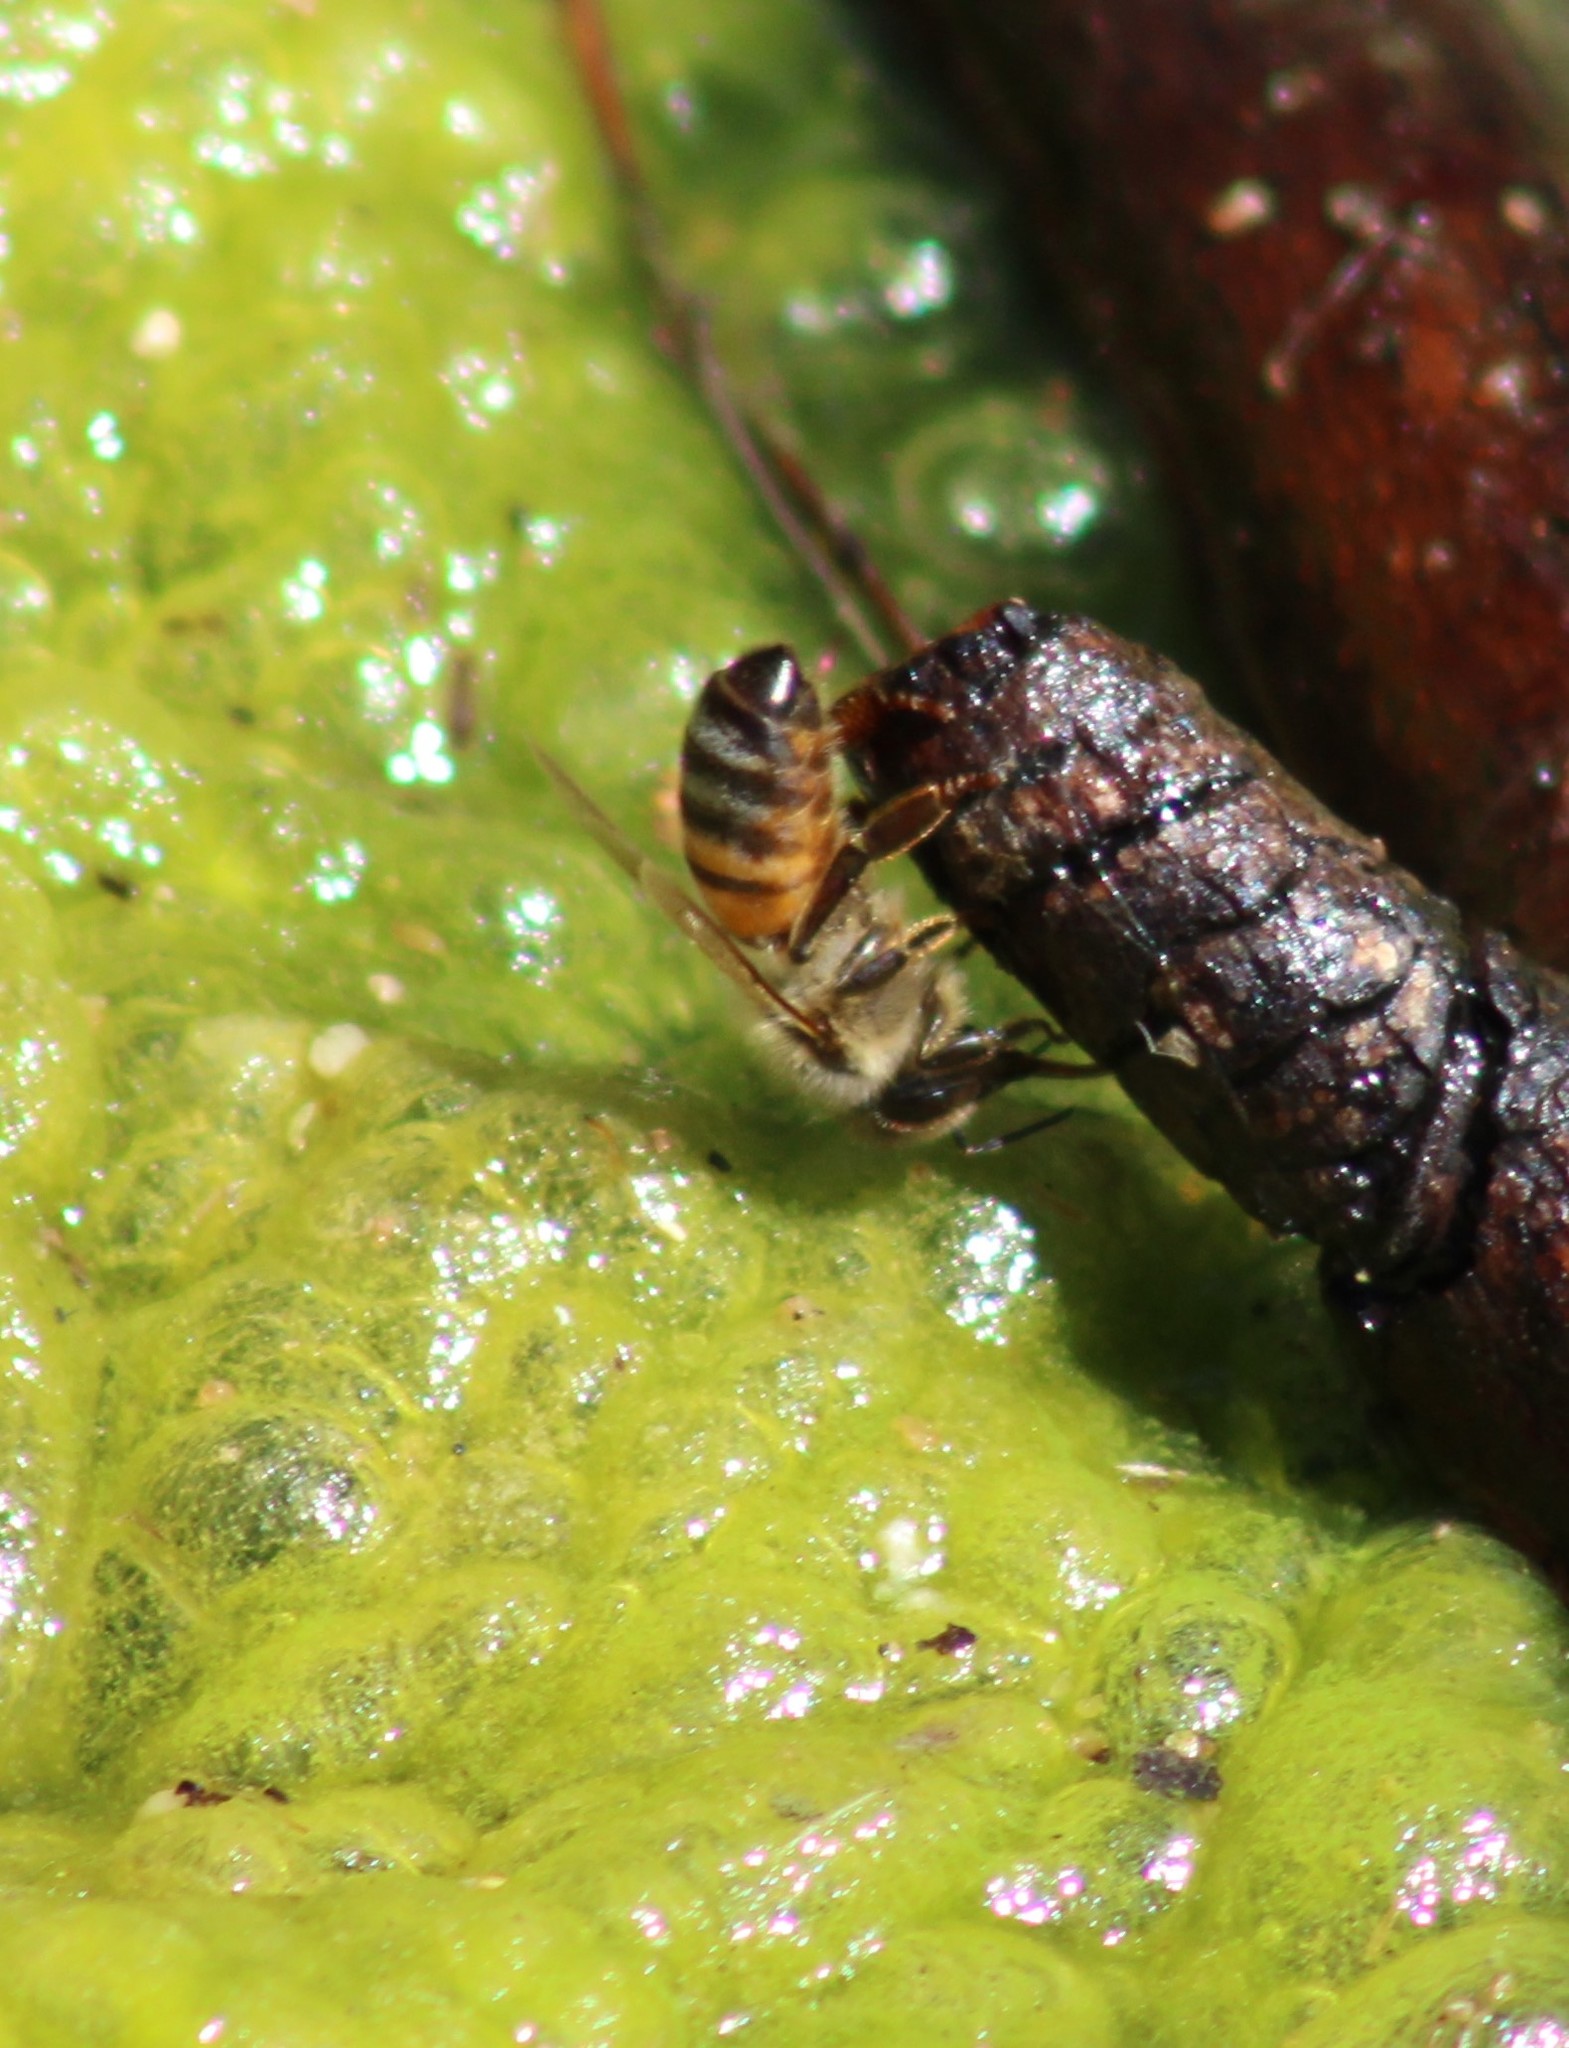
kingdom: Animalia
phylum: Arthropoda
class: Insecta
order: Hymenoptera
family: Apidae
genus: Apis
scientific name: Apis mellifera
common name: Honey bee
